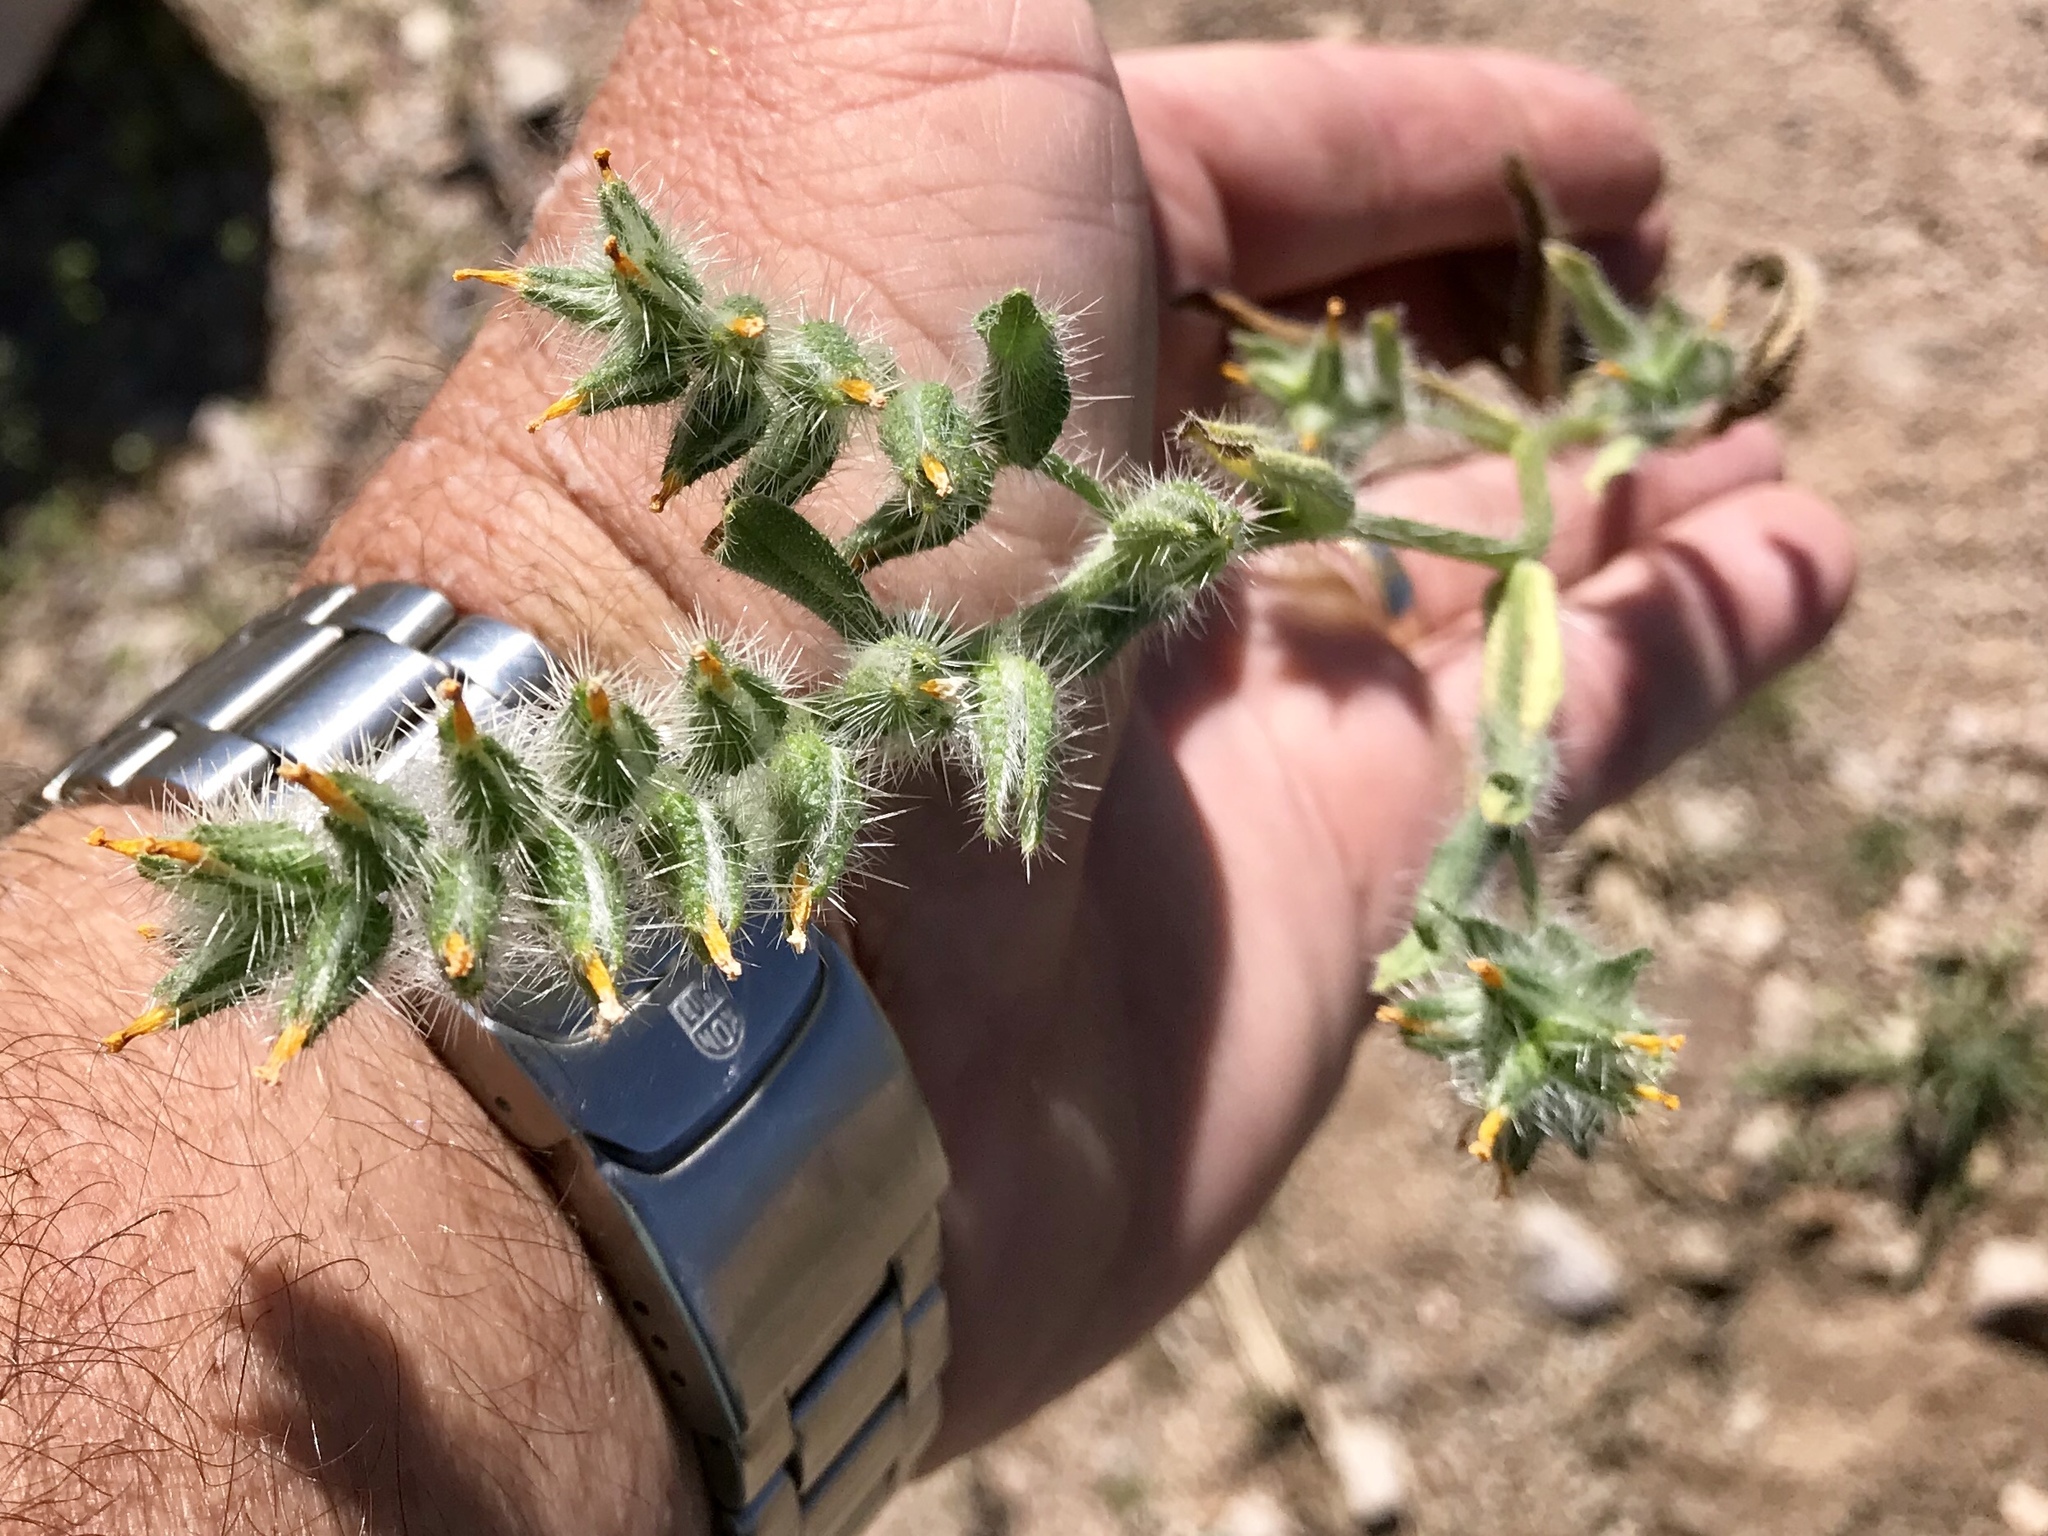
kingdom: Plantae
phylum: Tracheophyta
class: Magnoliopsida
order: Boraginales
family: Boraginaceae
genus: Amsinckia
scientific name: Amsinckia tessellata
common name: Tessellate fiddleneck
